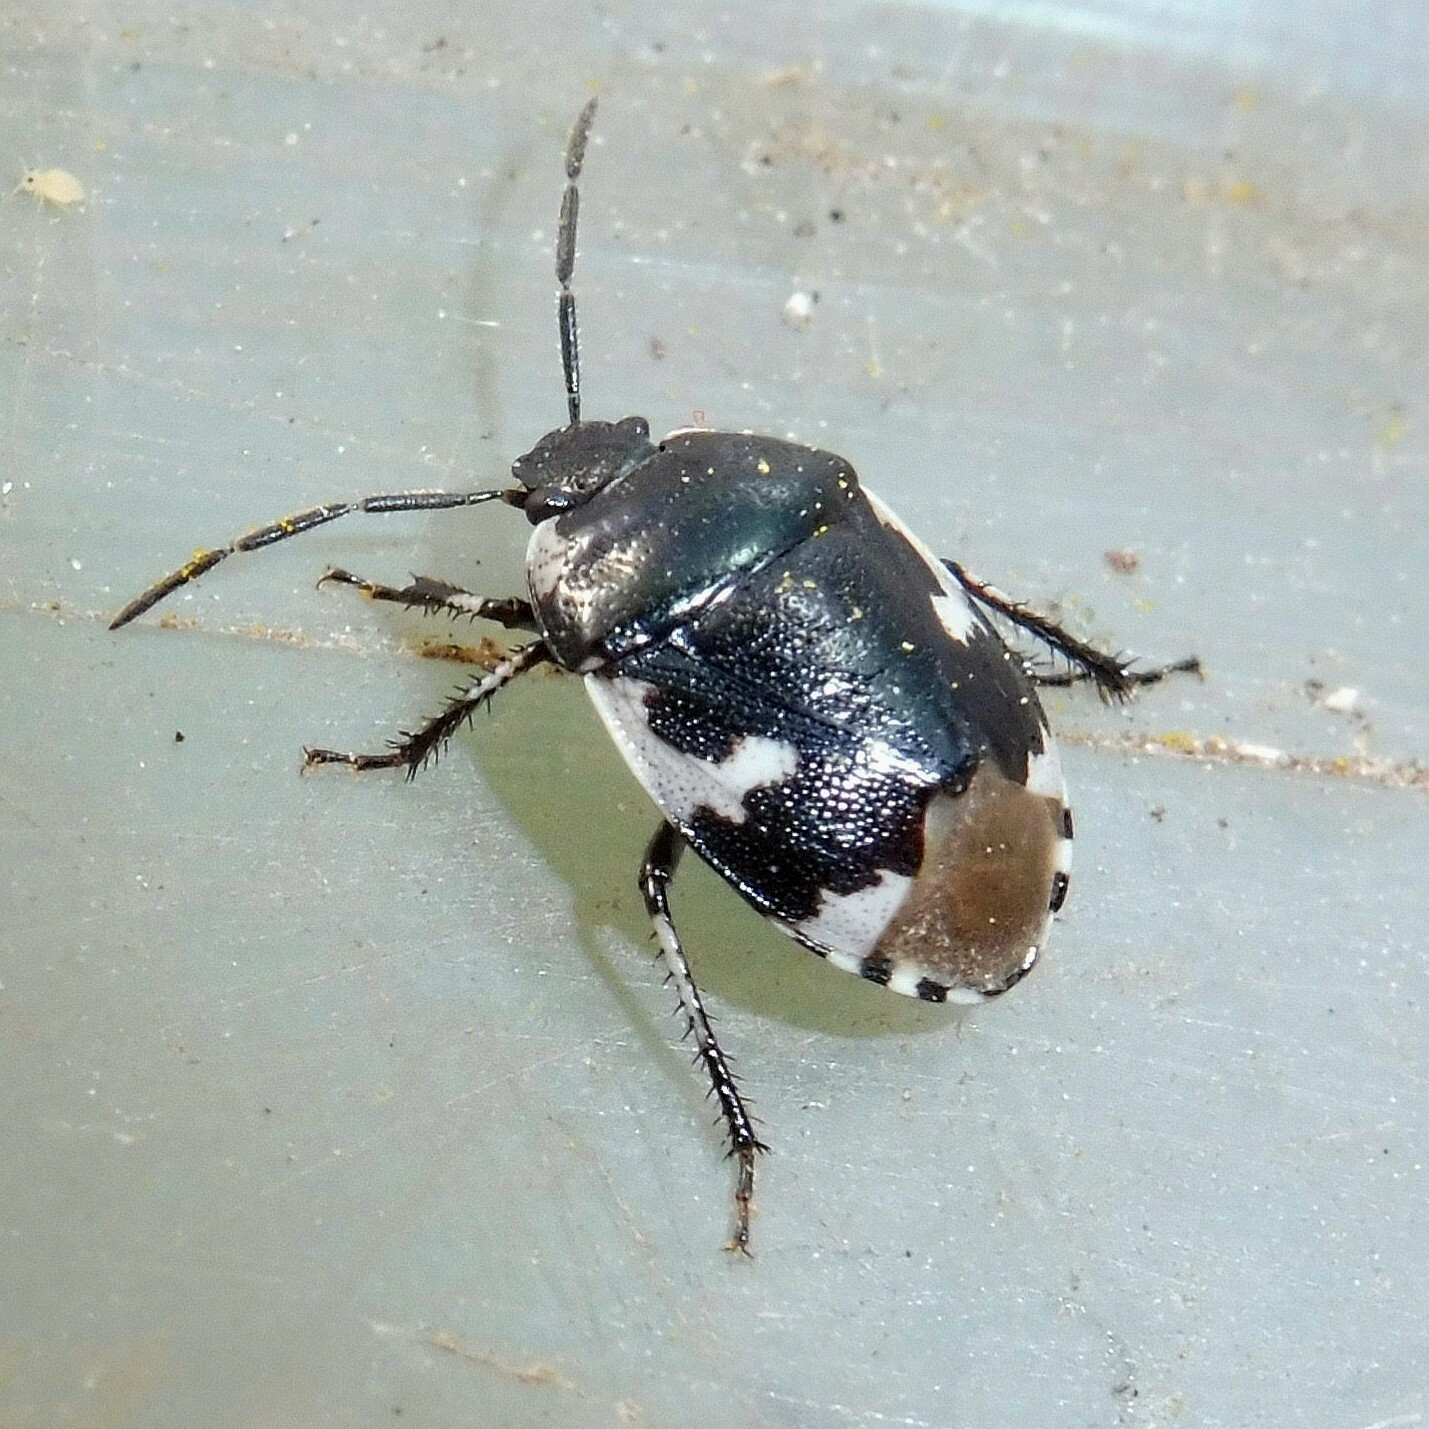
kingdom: Animalia
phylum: Arthropoda
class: Insecta
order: Hemiptera
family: Cydnidae
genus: Tritomegas
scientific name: Tritomegas bicolor
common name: Pied shieldbug
